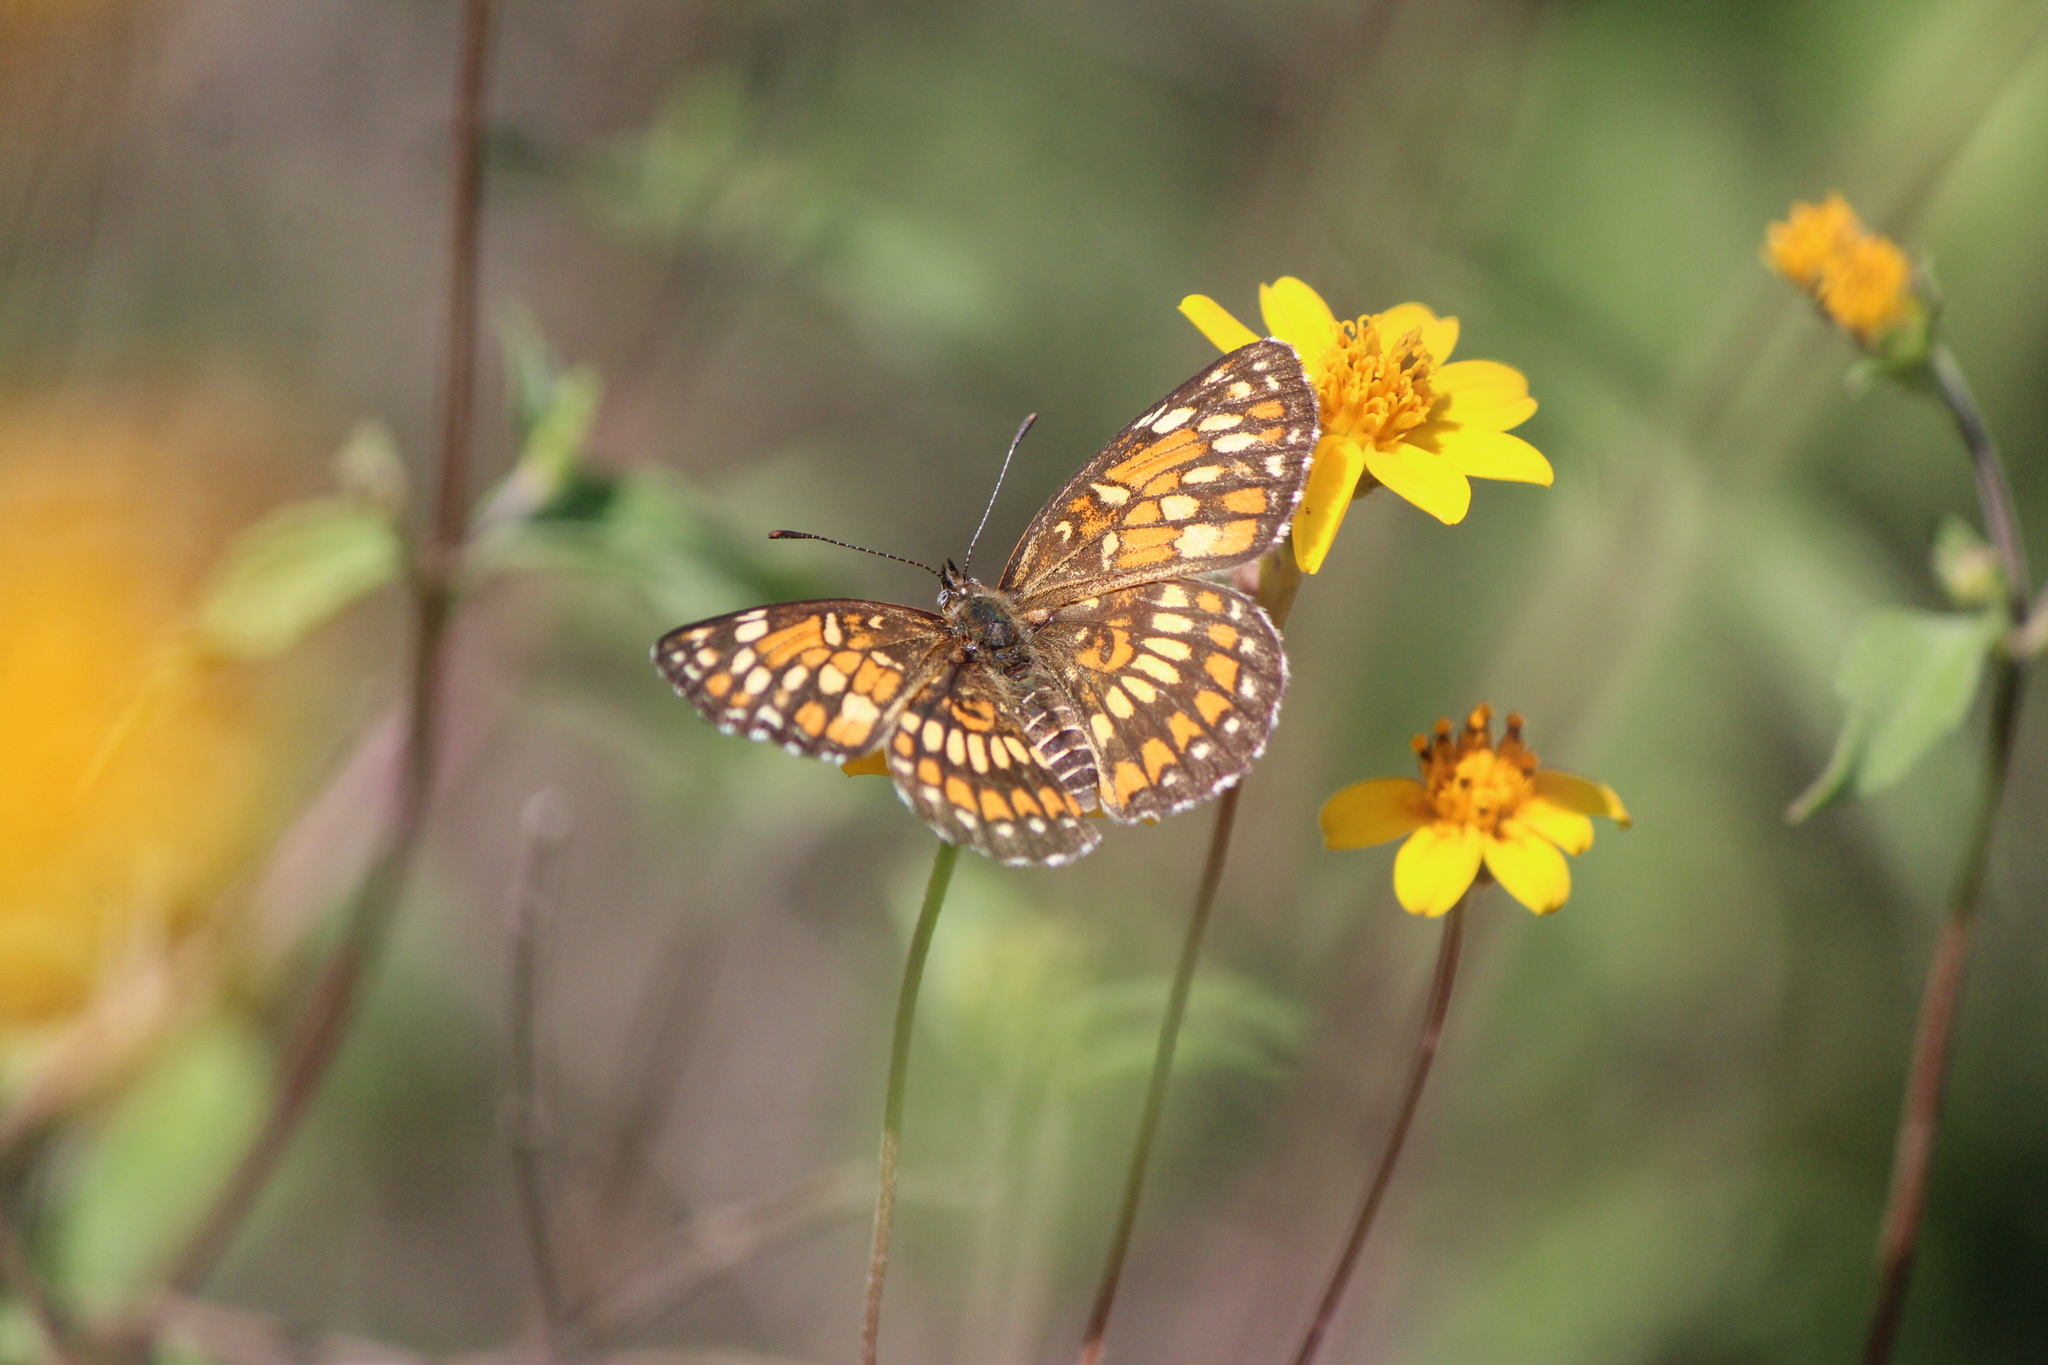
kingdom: Animalia
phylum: Arthropoda
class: Insecta
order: Lepidoptera
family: Nymphalidae
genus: Thessalia
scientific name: Thessalia theona
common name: Nymphalid moth
